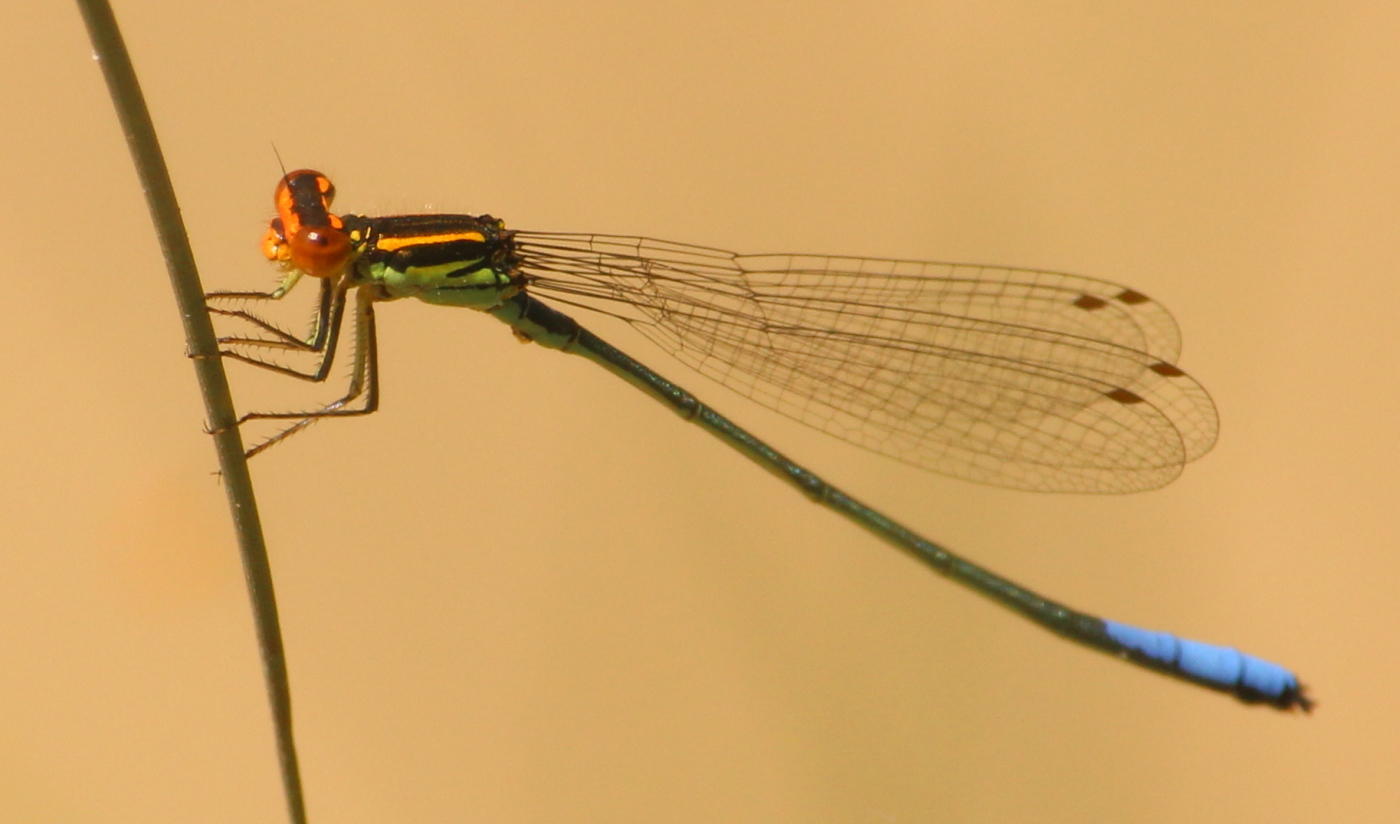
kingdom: Animalia
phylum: Arthropoda
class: Insecta
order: Odonata
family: Coenagrionidae
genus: Pseudagrion
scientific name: Pseudagrion newtoni
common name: Harlequin sprite
